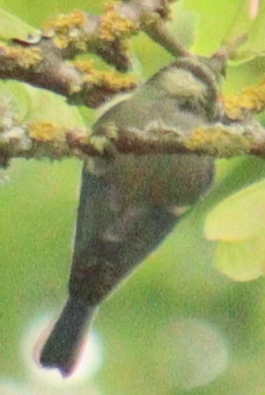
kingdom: Animalia
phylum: Chordata
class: Aves
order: Passeriformes
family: Paridae
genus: Cyanistes
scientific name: Cyanistes caeruleus
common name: Eurasian blue tit
